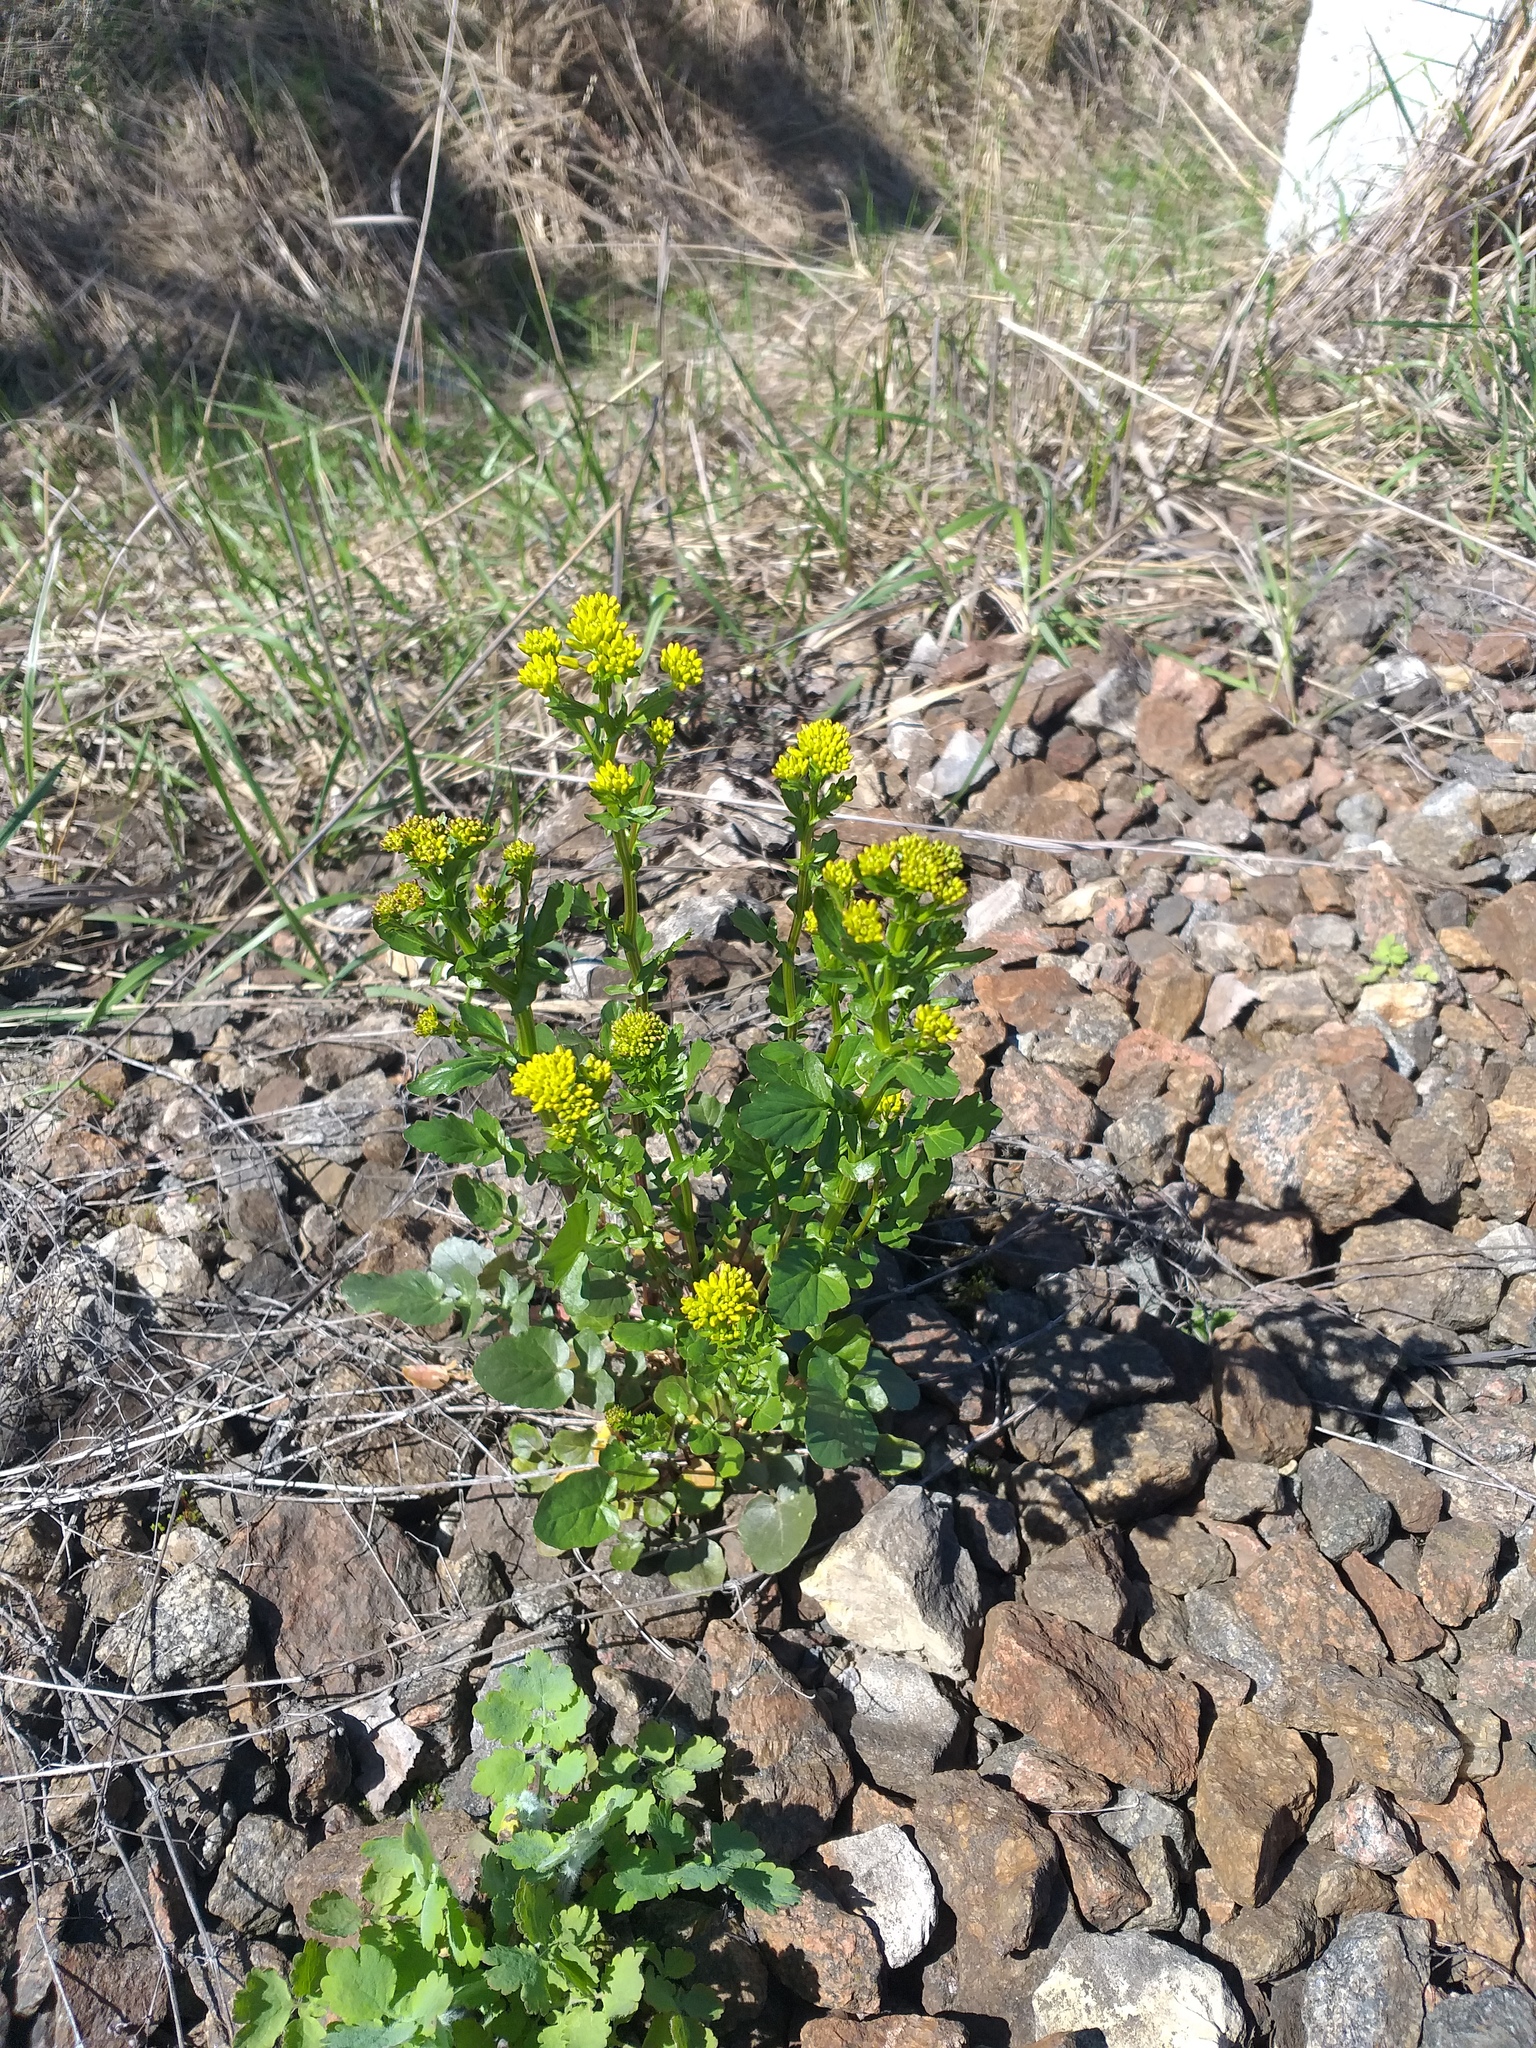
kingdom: Plantae
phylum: Tracheophyta
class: Magnoliopsida
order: Brassicales
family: Brassicaceae
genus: Barbarea
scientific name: Barbarea vulgaris
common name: Cressy-greens
